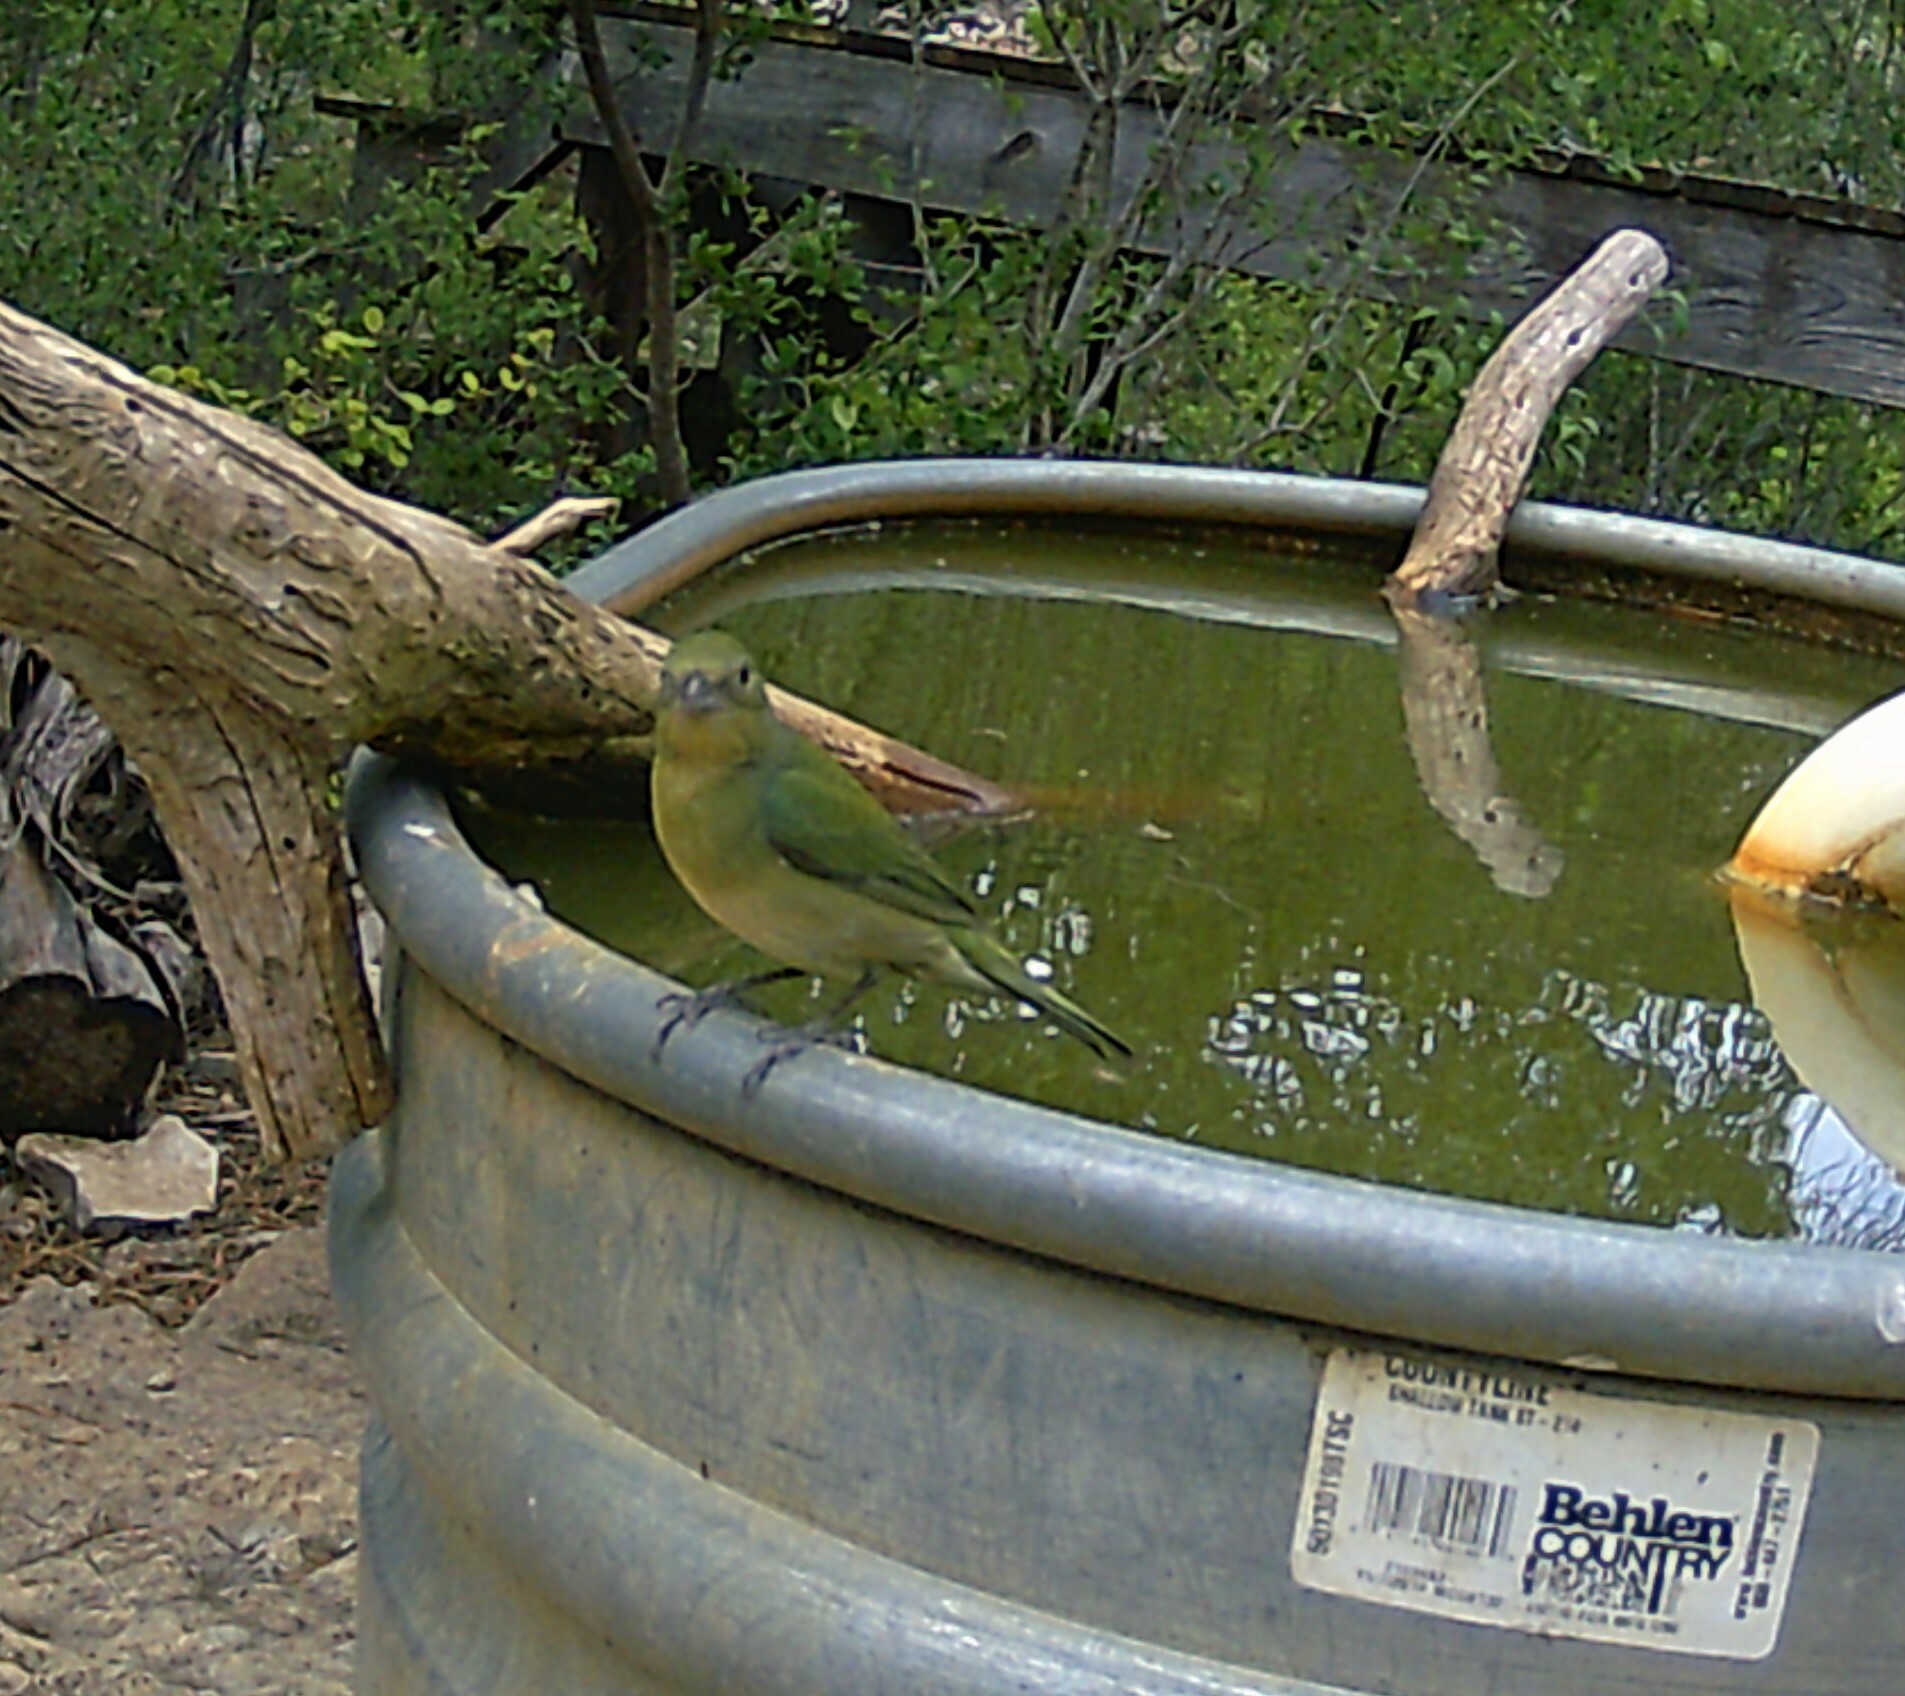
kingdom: Animalia
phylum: Chordata
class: Aves
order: Passeriformes
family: Cardinalidae
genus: Passerina
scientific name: Passerina ciris
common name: Painted bunting
